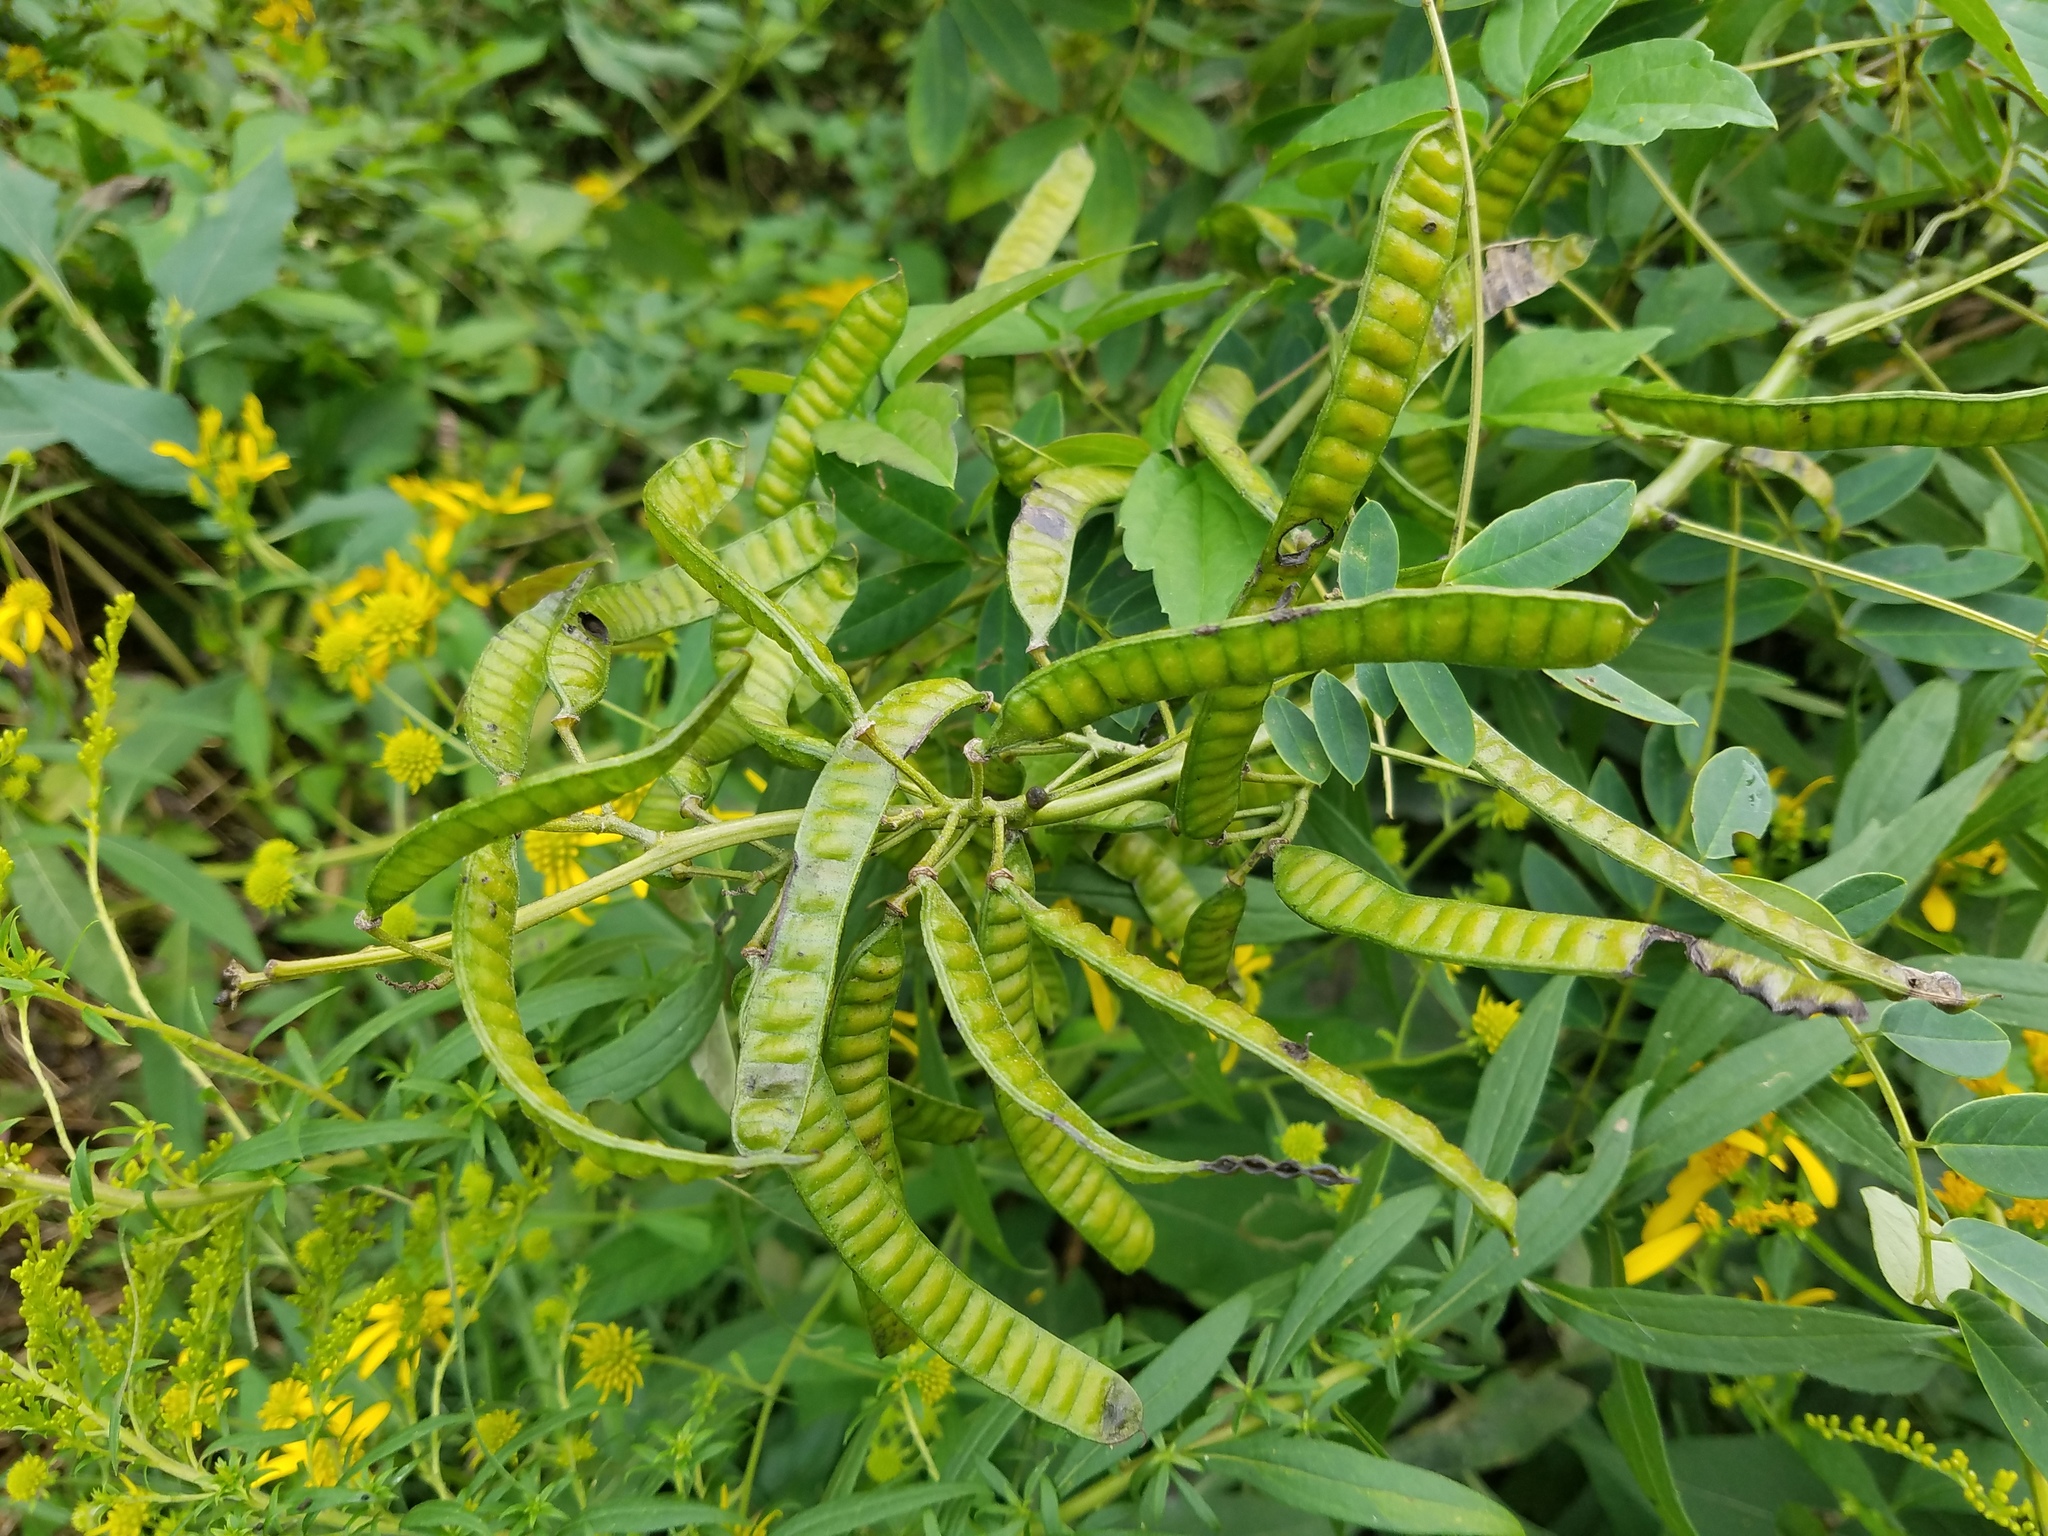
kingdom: Plantae
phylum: Tracheophyta
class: Magnoliopsida
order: Fabales
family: Fabaceae
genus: Senna
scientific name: Senna marilandica
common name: American senna
